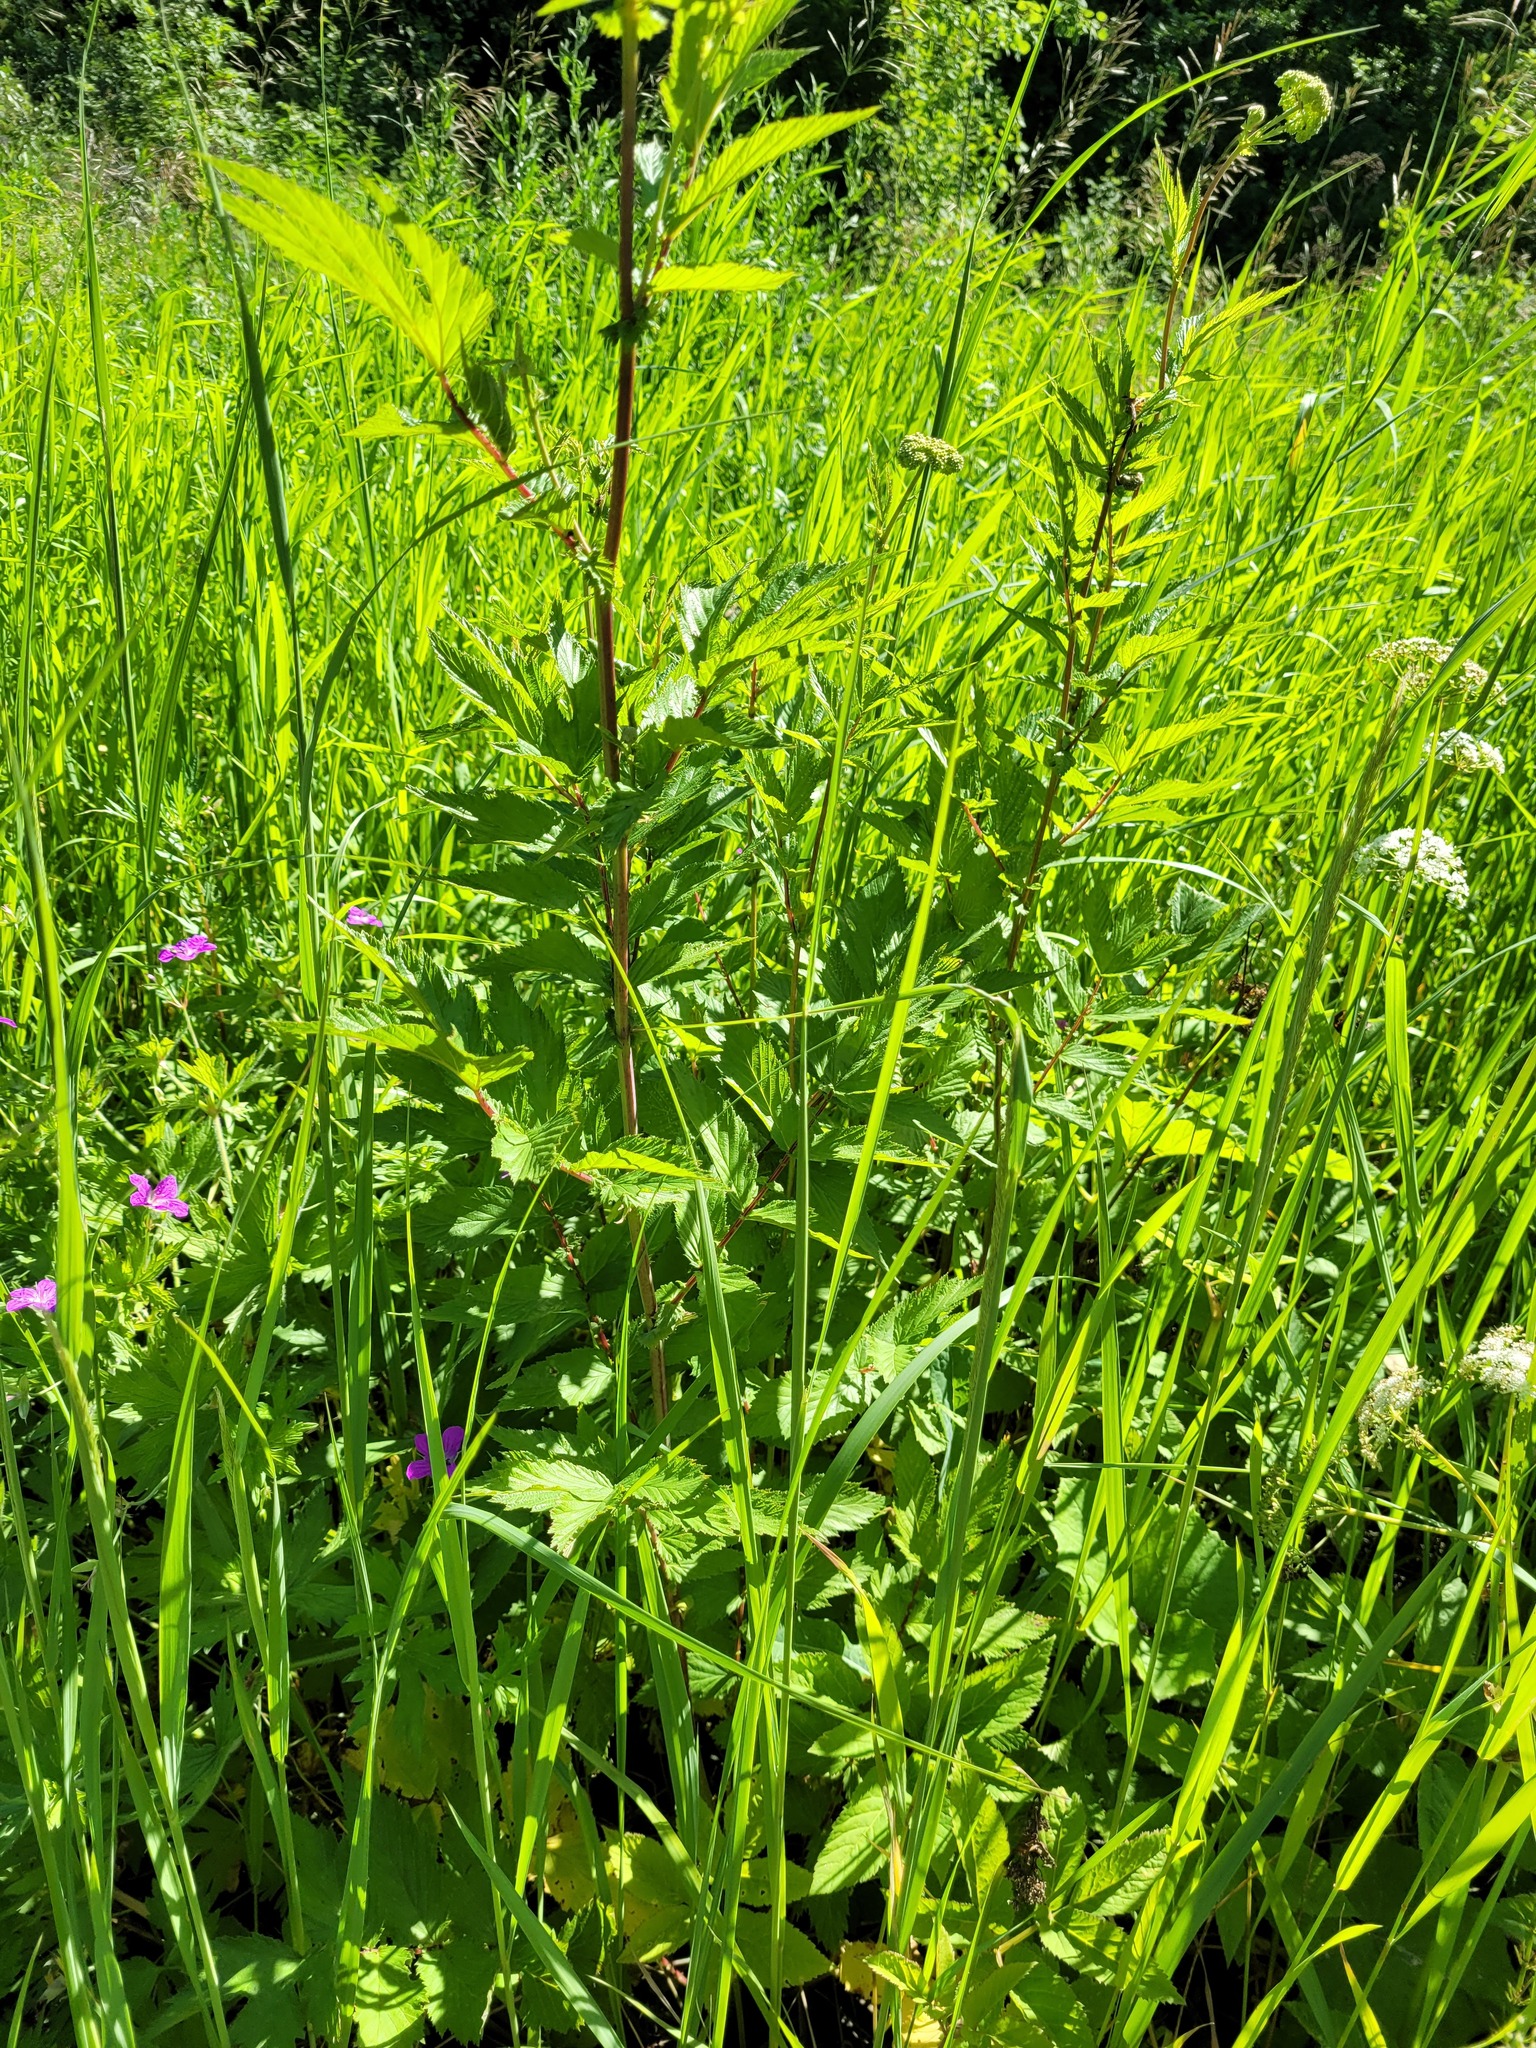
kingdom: Plantae
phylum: Tracheophyta
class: Magnoliopsida
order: Rosales
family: Rosaceae
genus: Filipendula
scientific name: Filipendula ulmaria
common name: Meadowsweet
